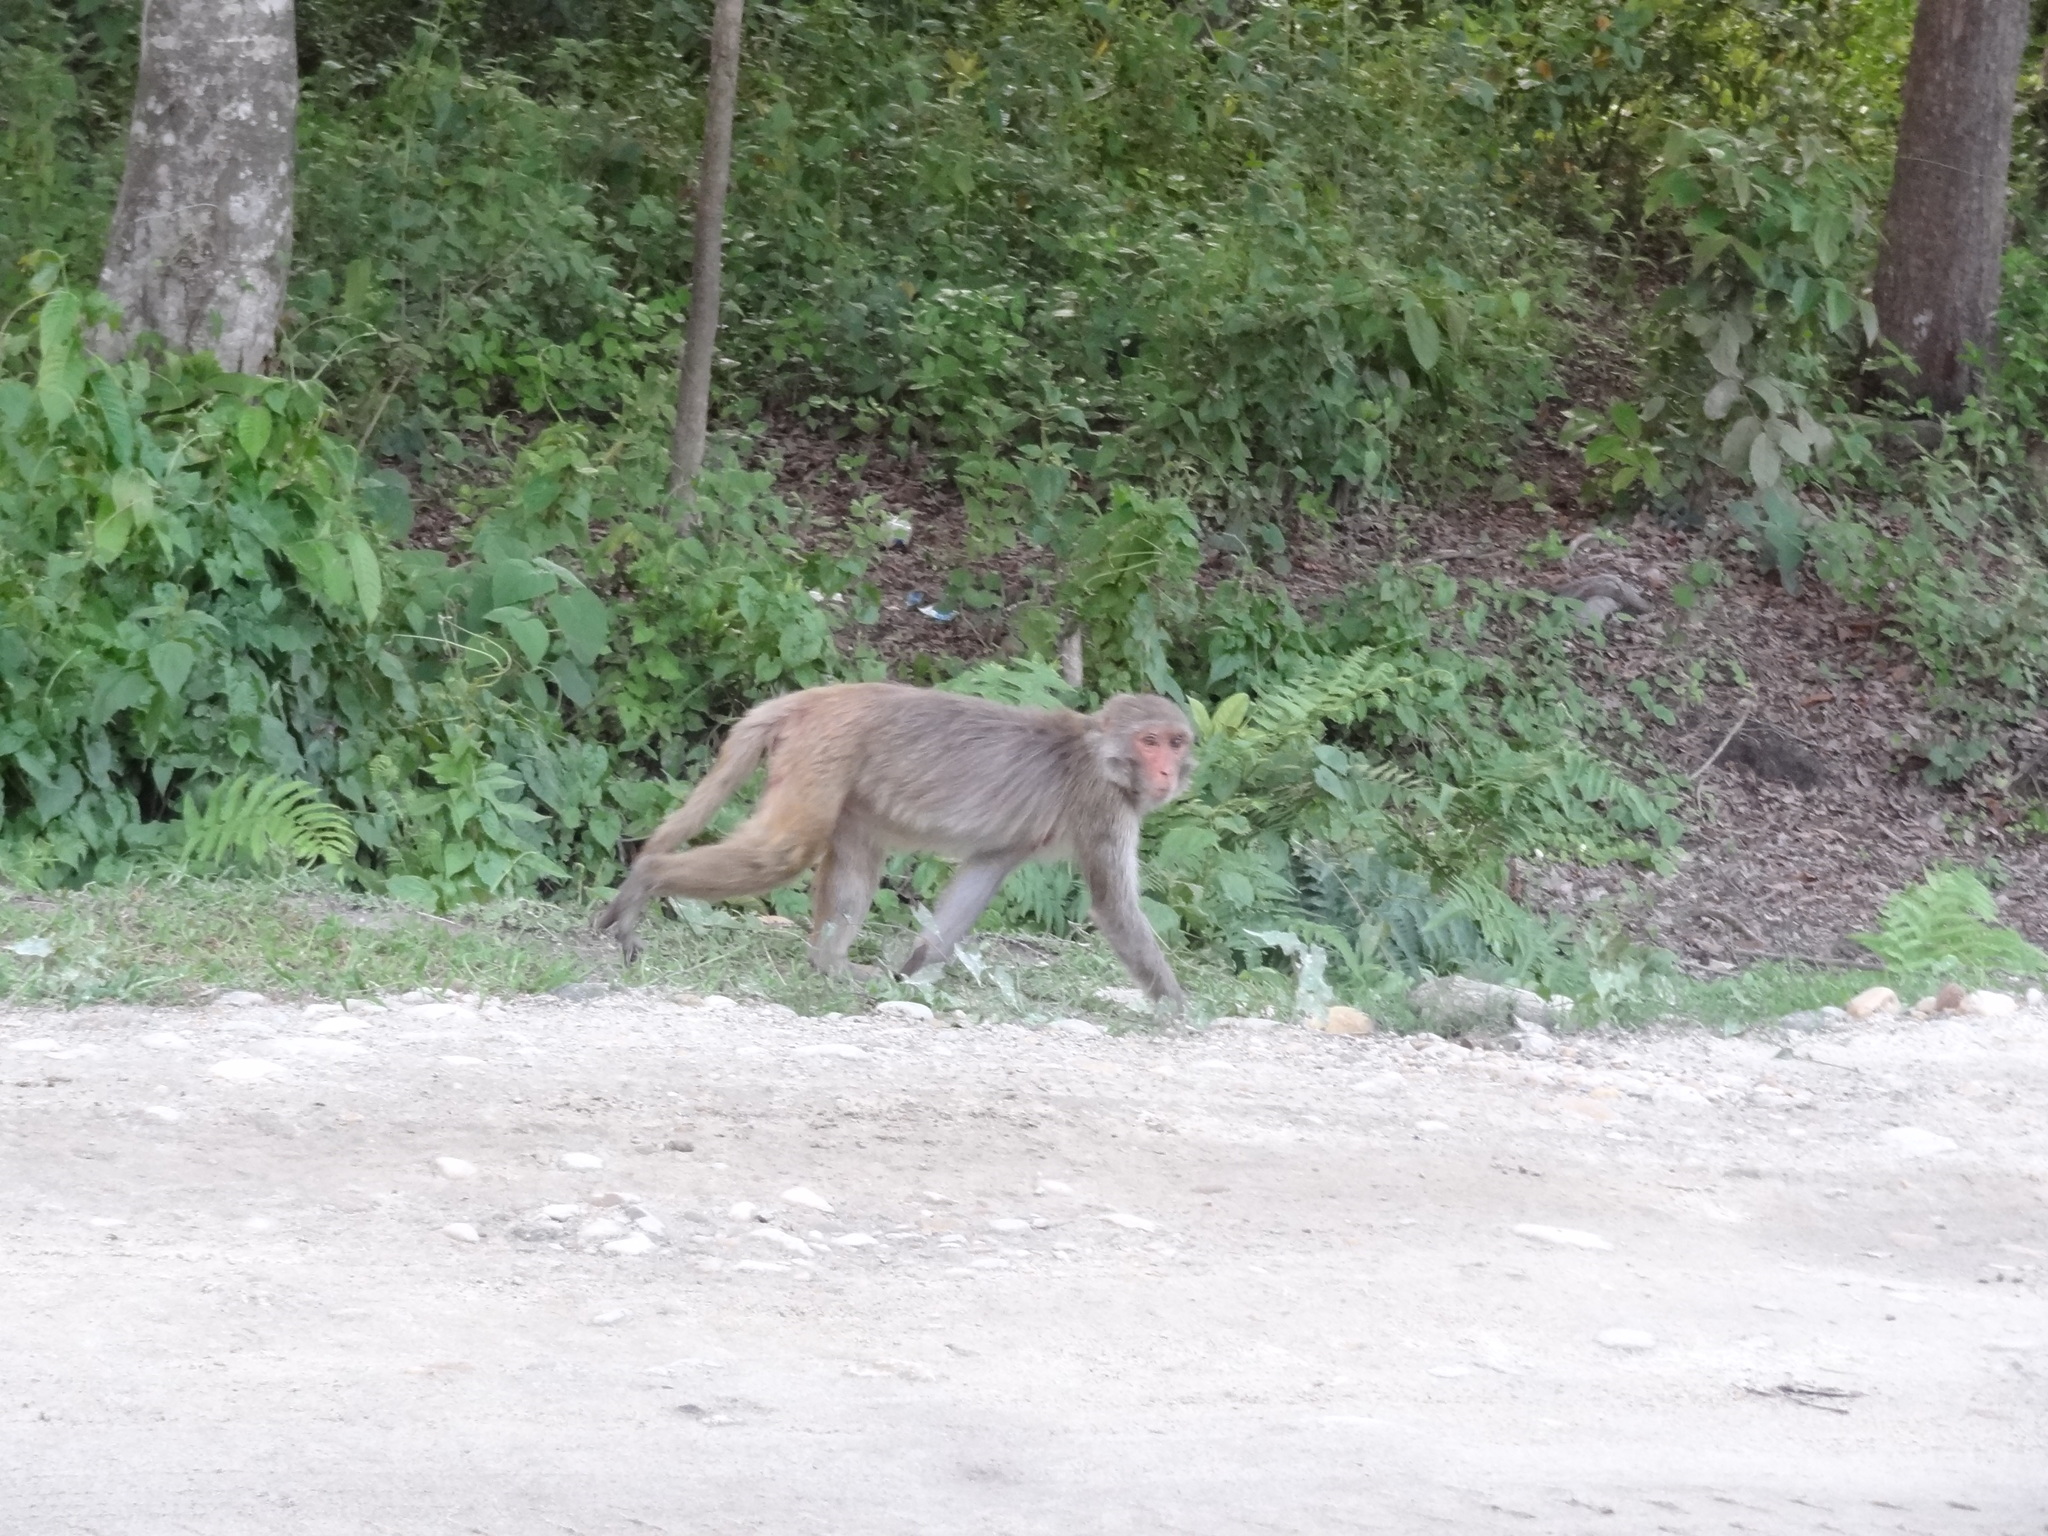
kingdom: Animalia
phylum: Chordata
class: Mammalia
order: Primates
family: Cercopithecidae
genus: Macaca
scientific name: Macaca mulatta
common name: Rhesus monkey
